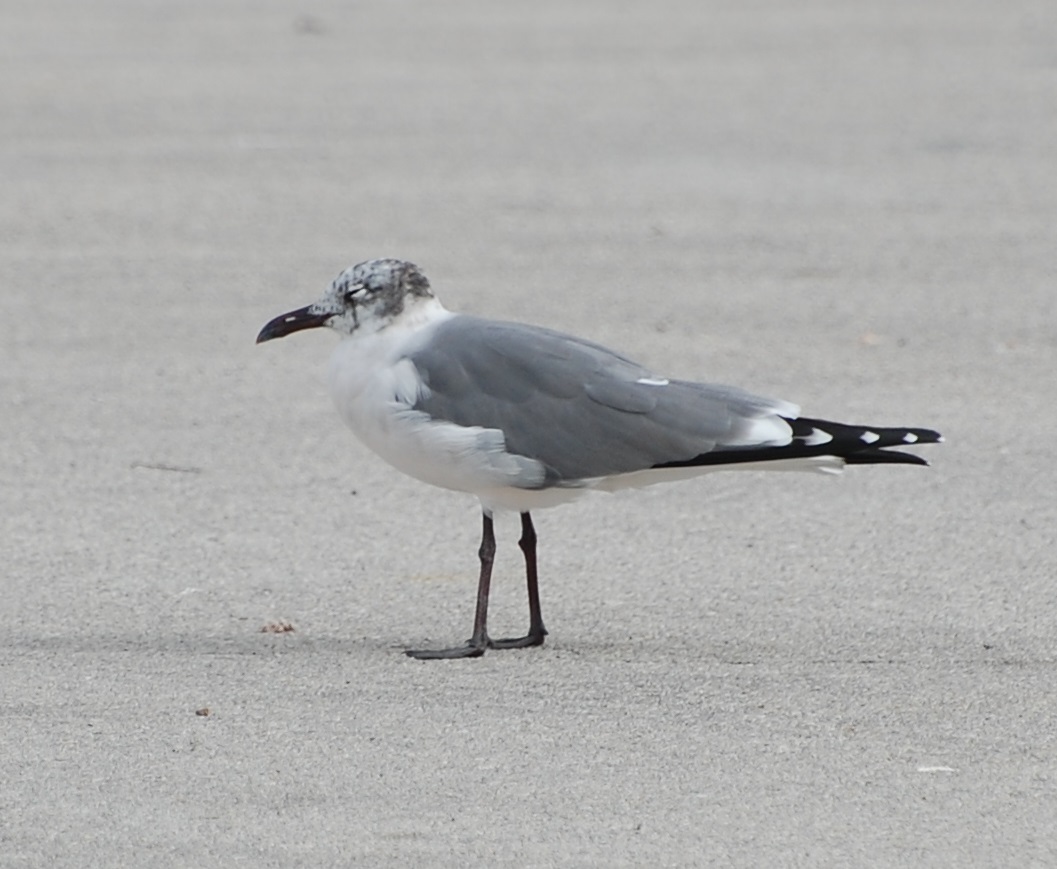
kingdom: Animalia
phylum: Chordata
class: Aves
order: Charadriiformes
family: Laridae
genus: Leucophaeus
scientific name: Leucophaeus atricilla
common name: Laughing gull
